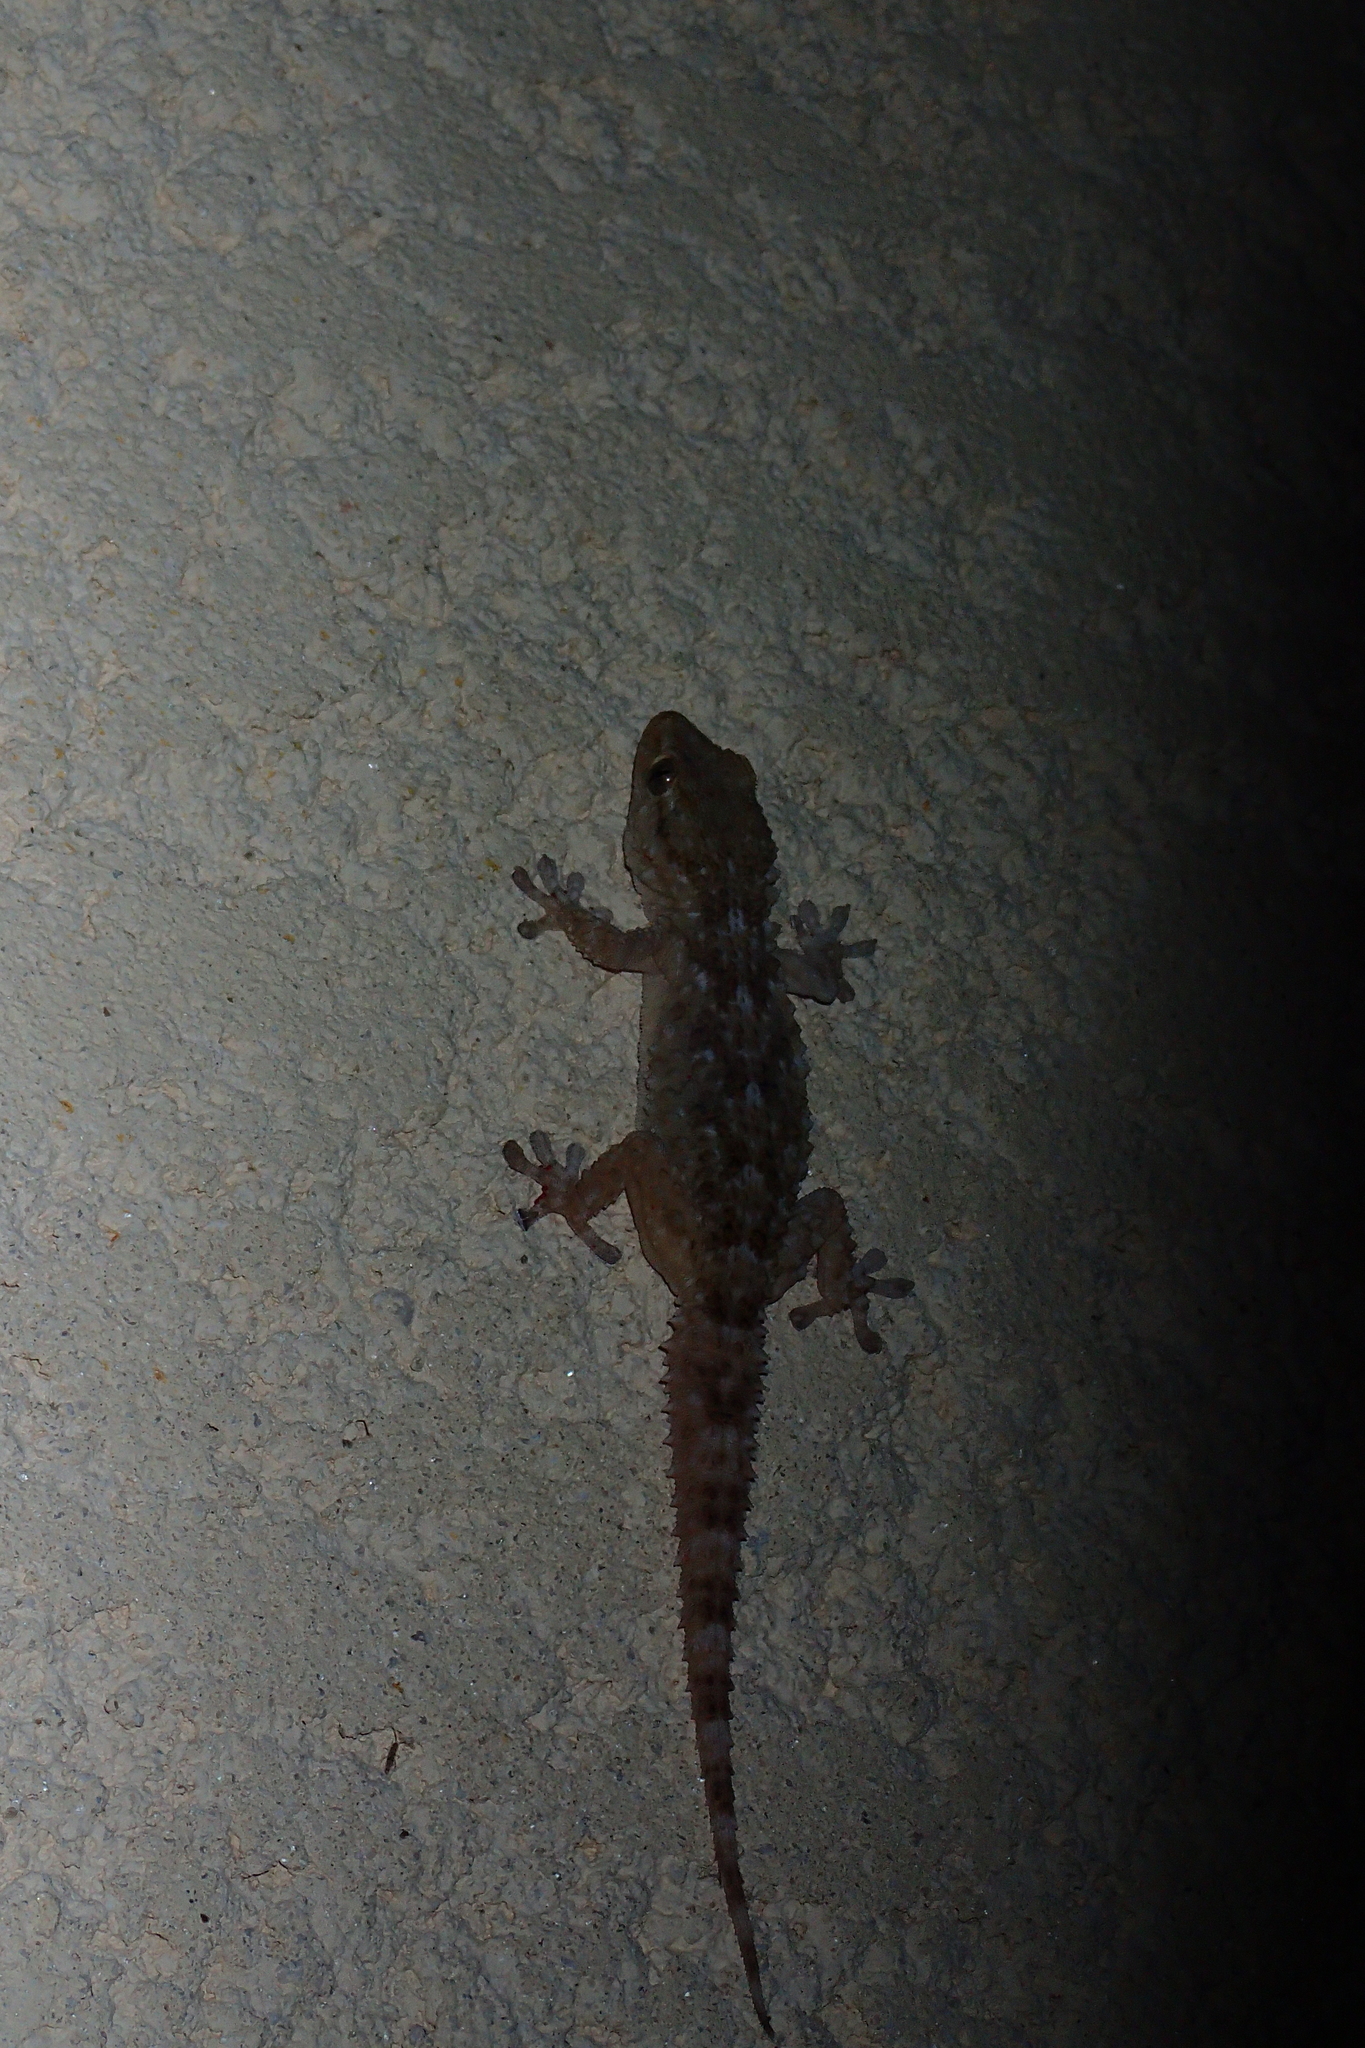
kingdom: Animalia
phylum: Chordata
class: Squamata
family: Phyllodactylidae
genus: Tarentola
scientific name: Tarentola mauritanica
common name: Moorish gecko
